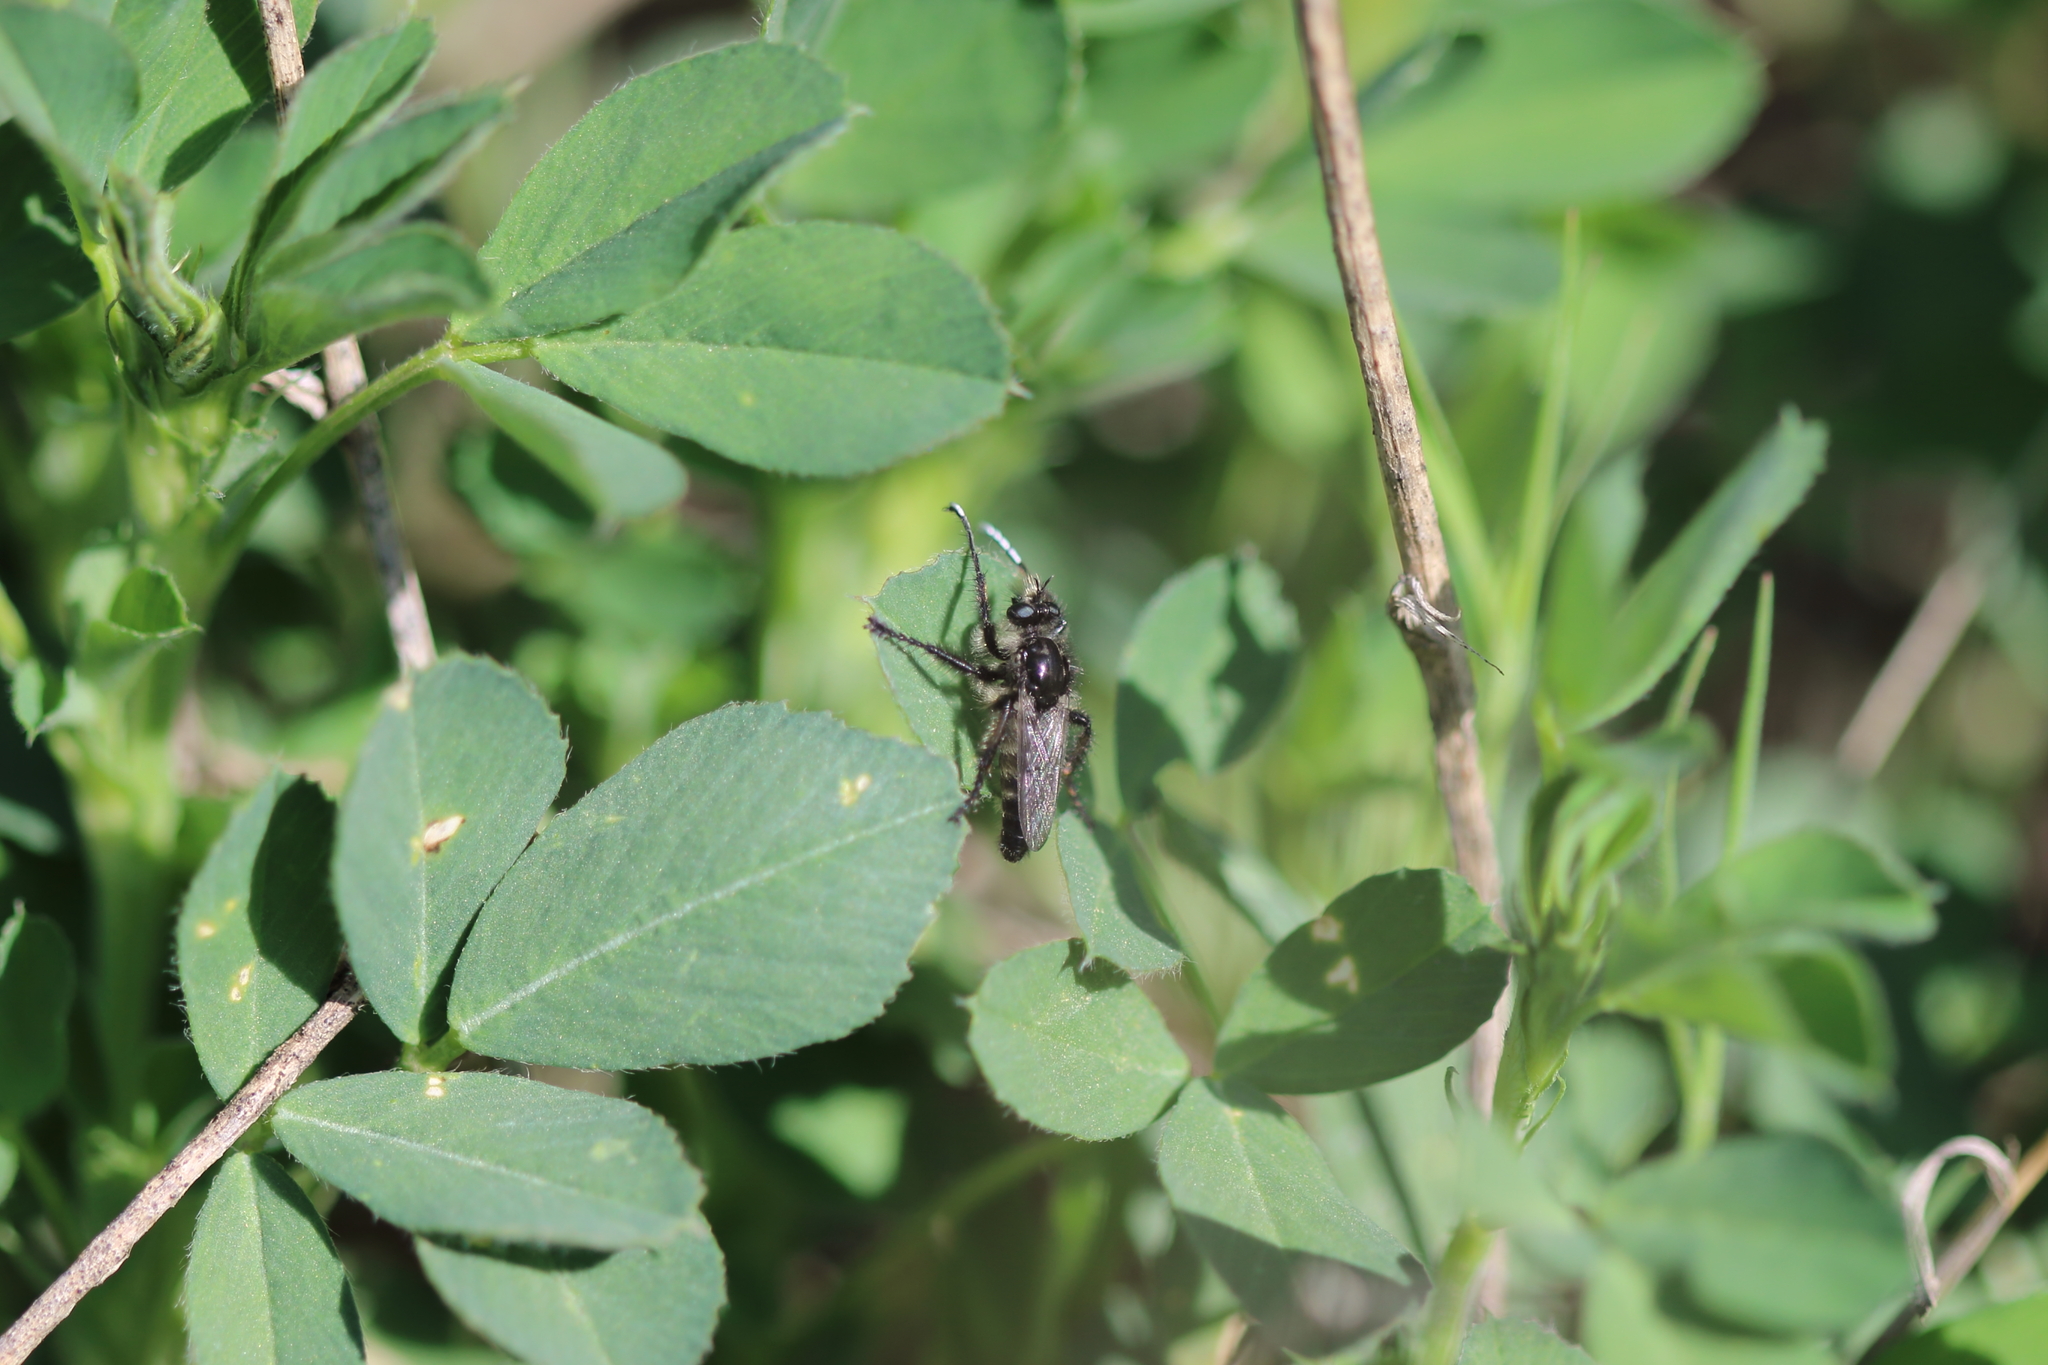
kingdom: Animalia
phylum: Arthropoda
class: Insecta
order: Diptera
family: Asilidae
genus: Cyrtopogon
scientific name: Cyrtopogon willistoni
